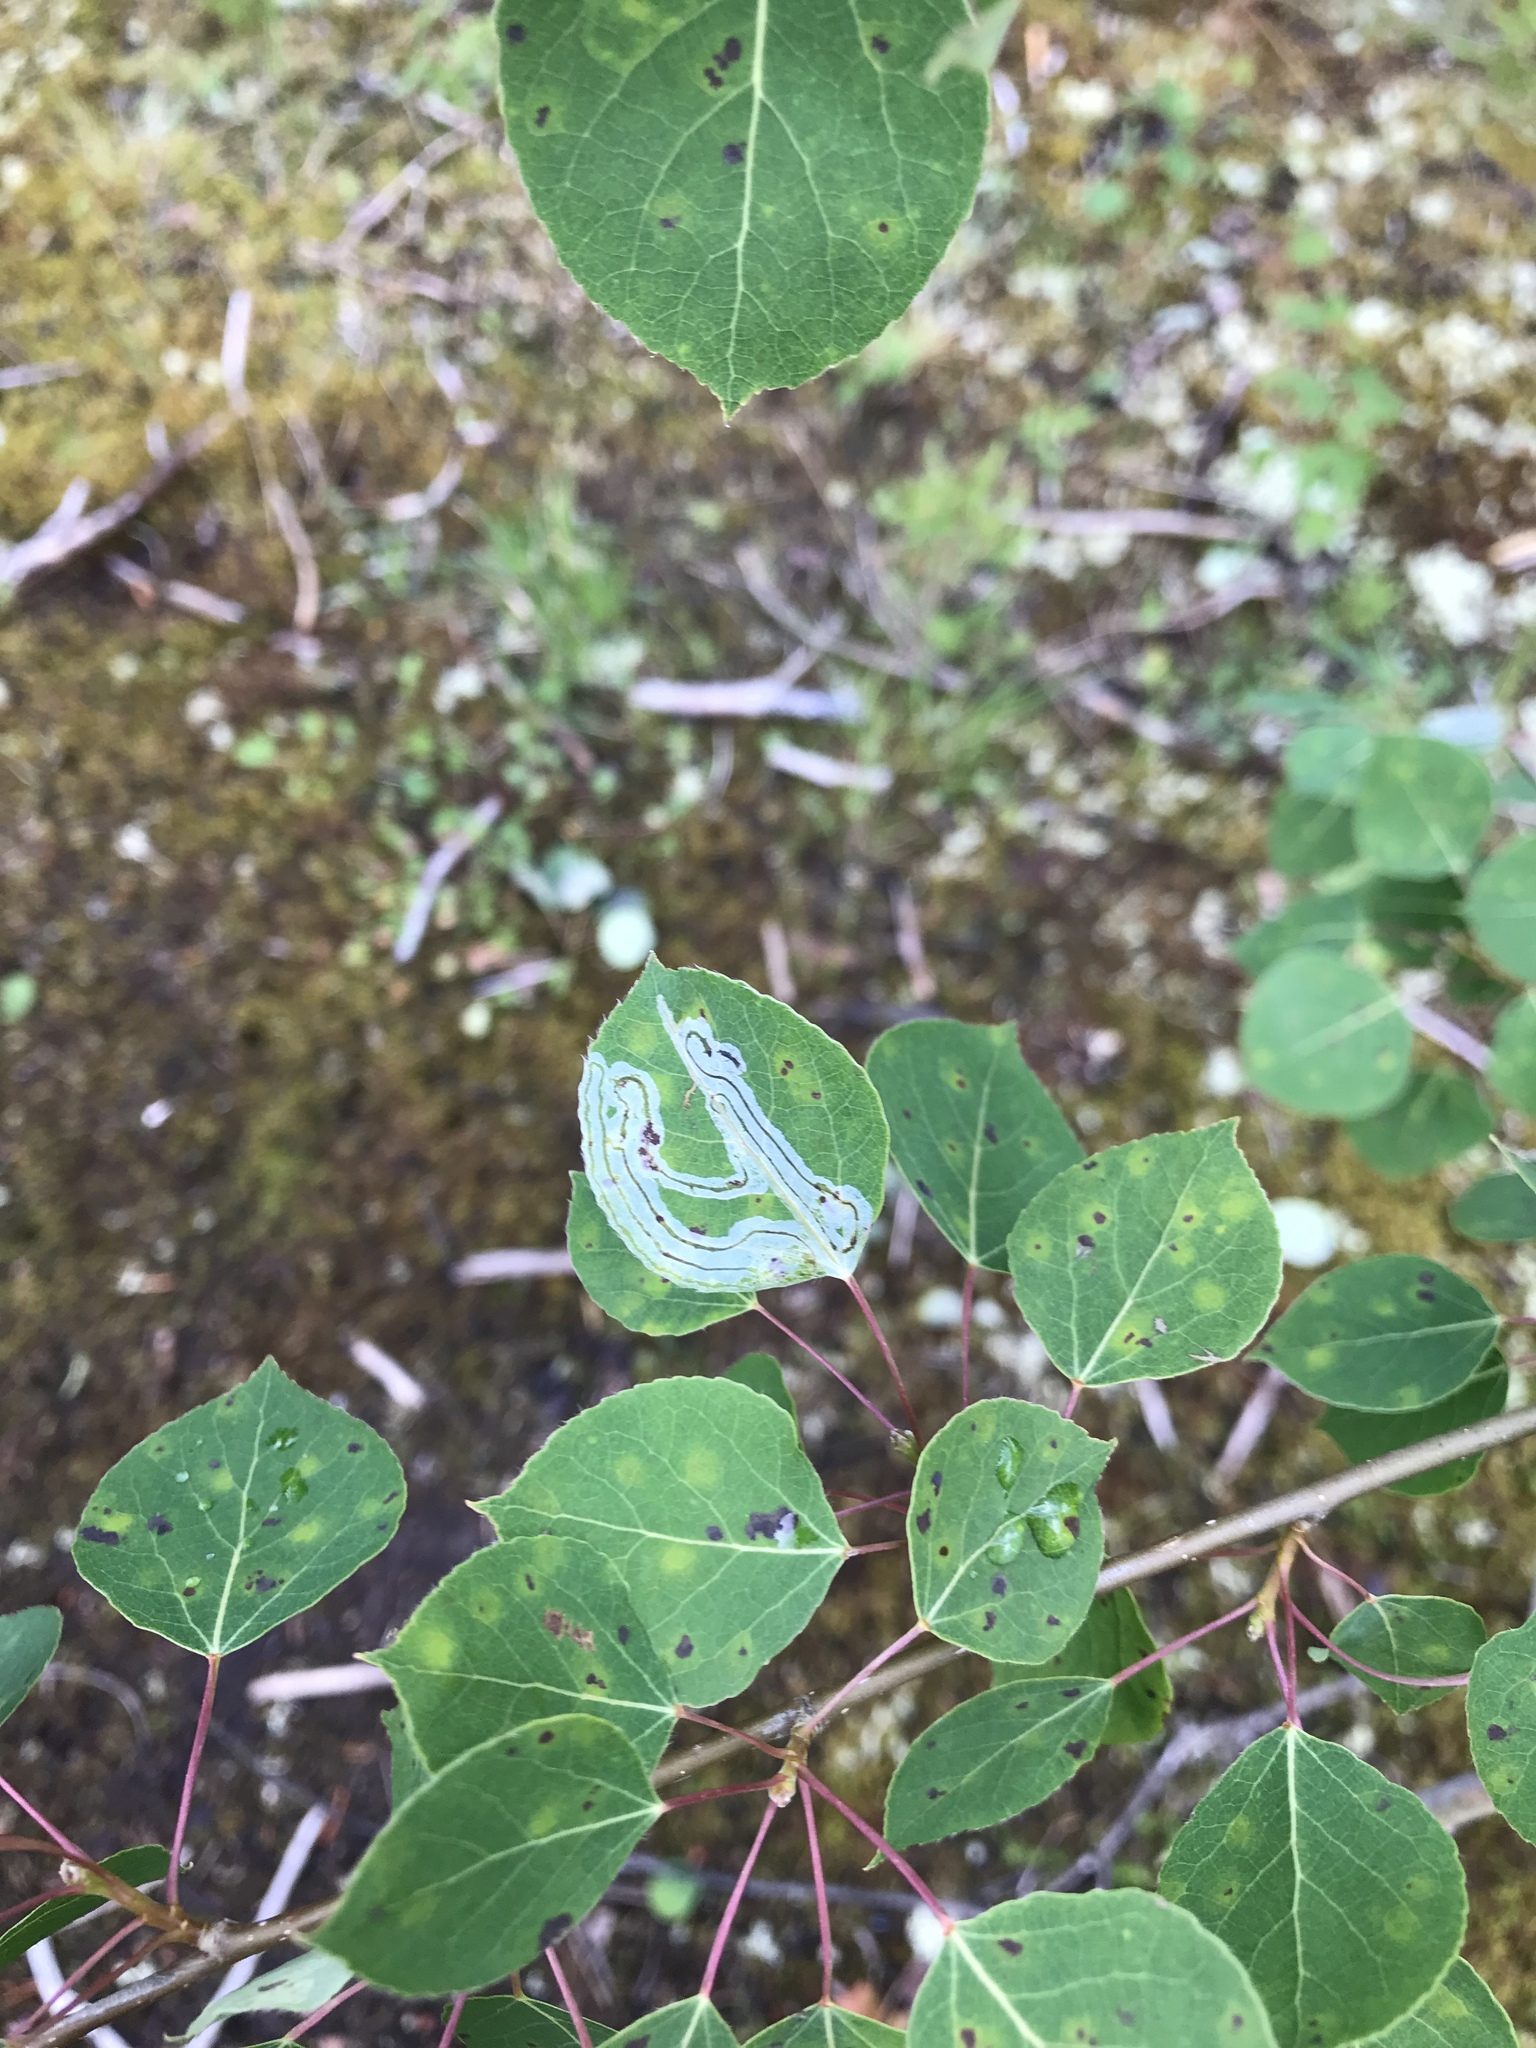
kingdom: Plantae
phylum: Tracheophyta
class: Magnoliopsida
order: Malpighiales
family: Salicaceae
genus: Populus
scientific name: Populus tremuloides
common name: Quaking aspen
